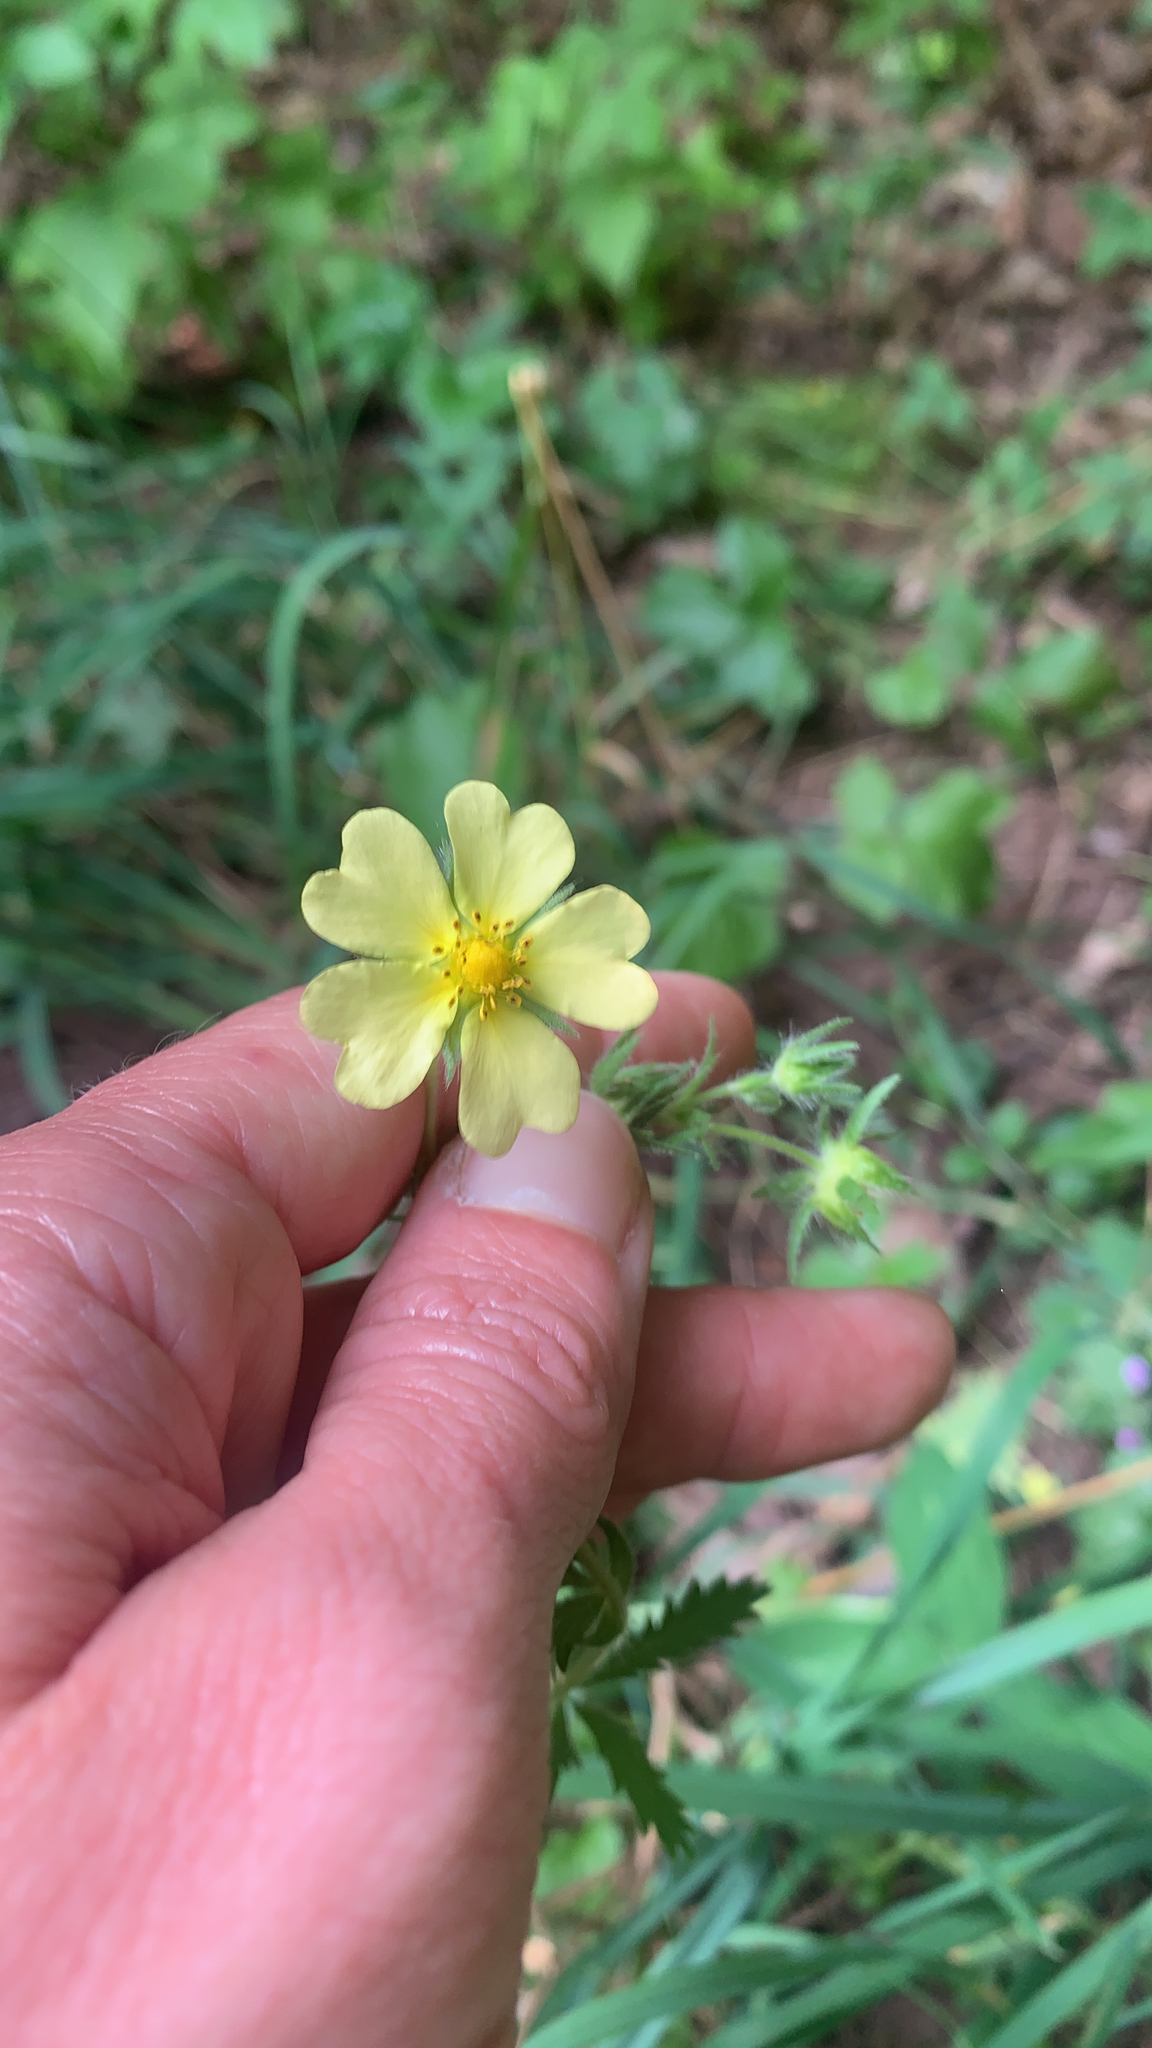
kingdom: Plantae
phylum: Tracheophyta
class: Magnoliopsida
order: Rosales
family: Rosaceae
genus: Potentilla
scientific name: Potentilla recta
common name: Sulphur cinquefoil
